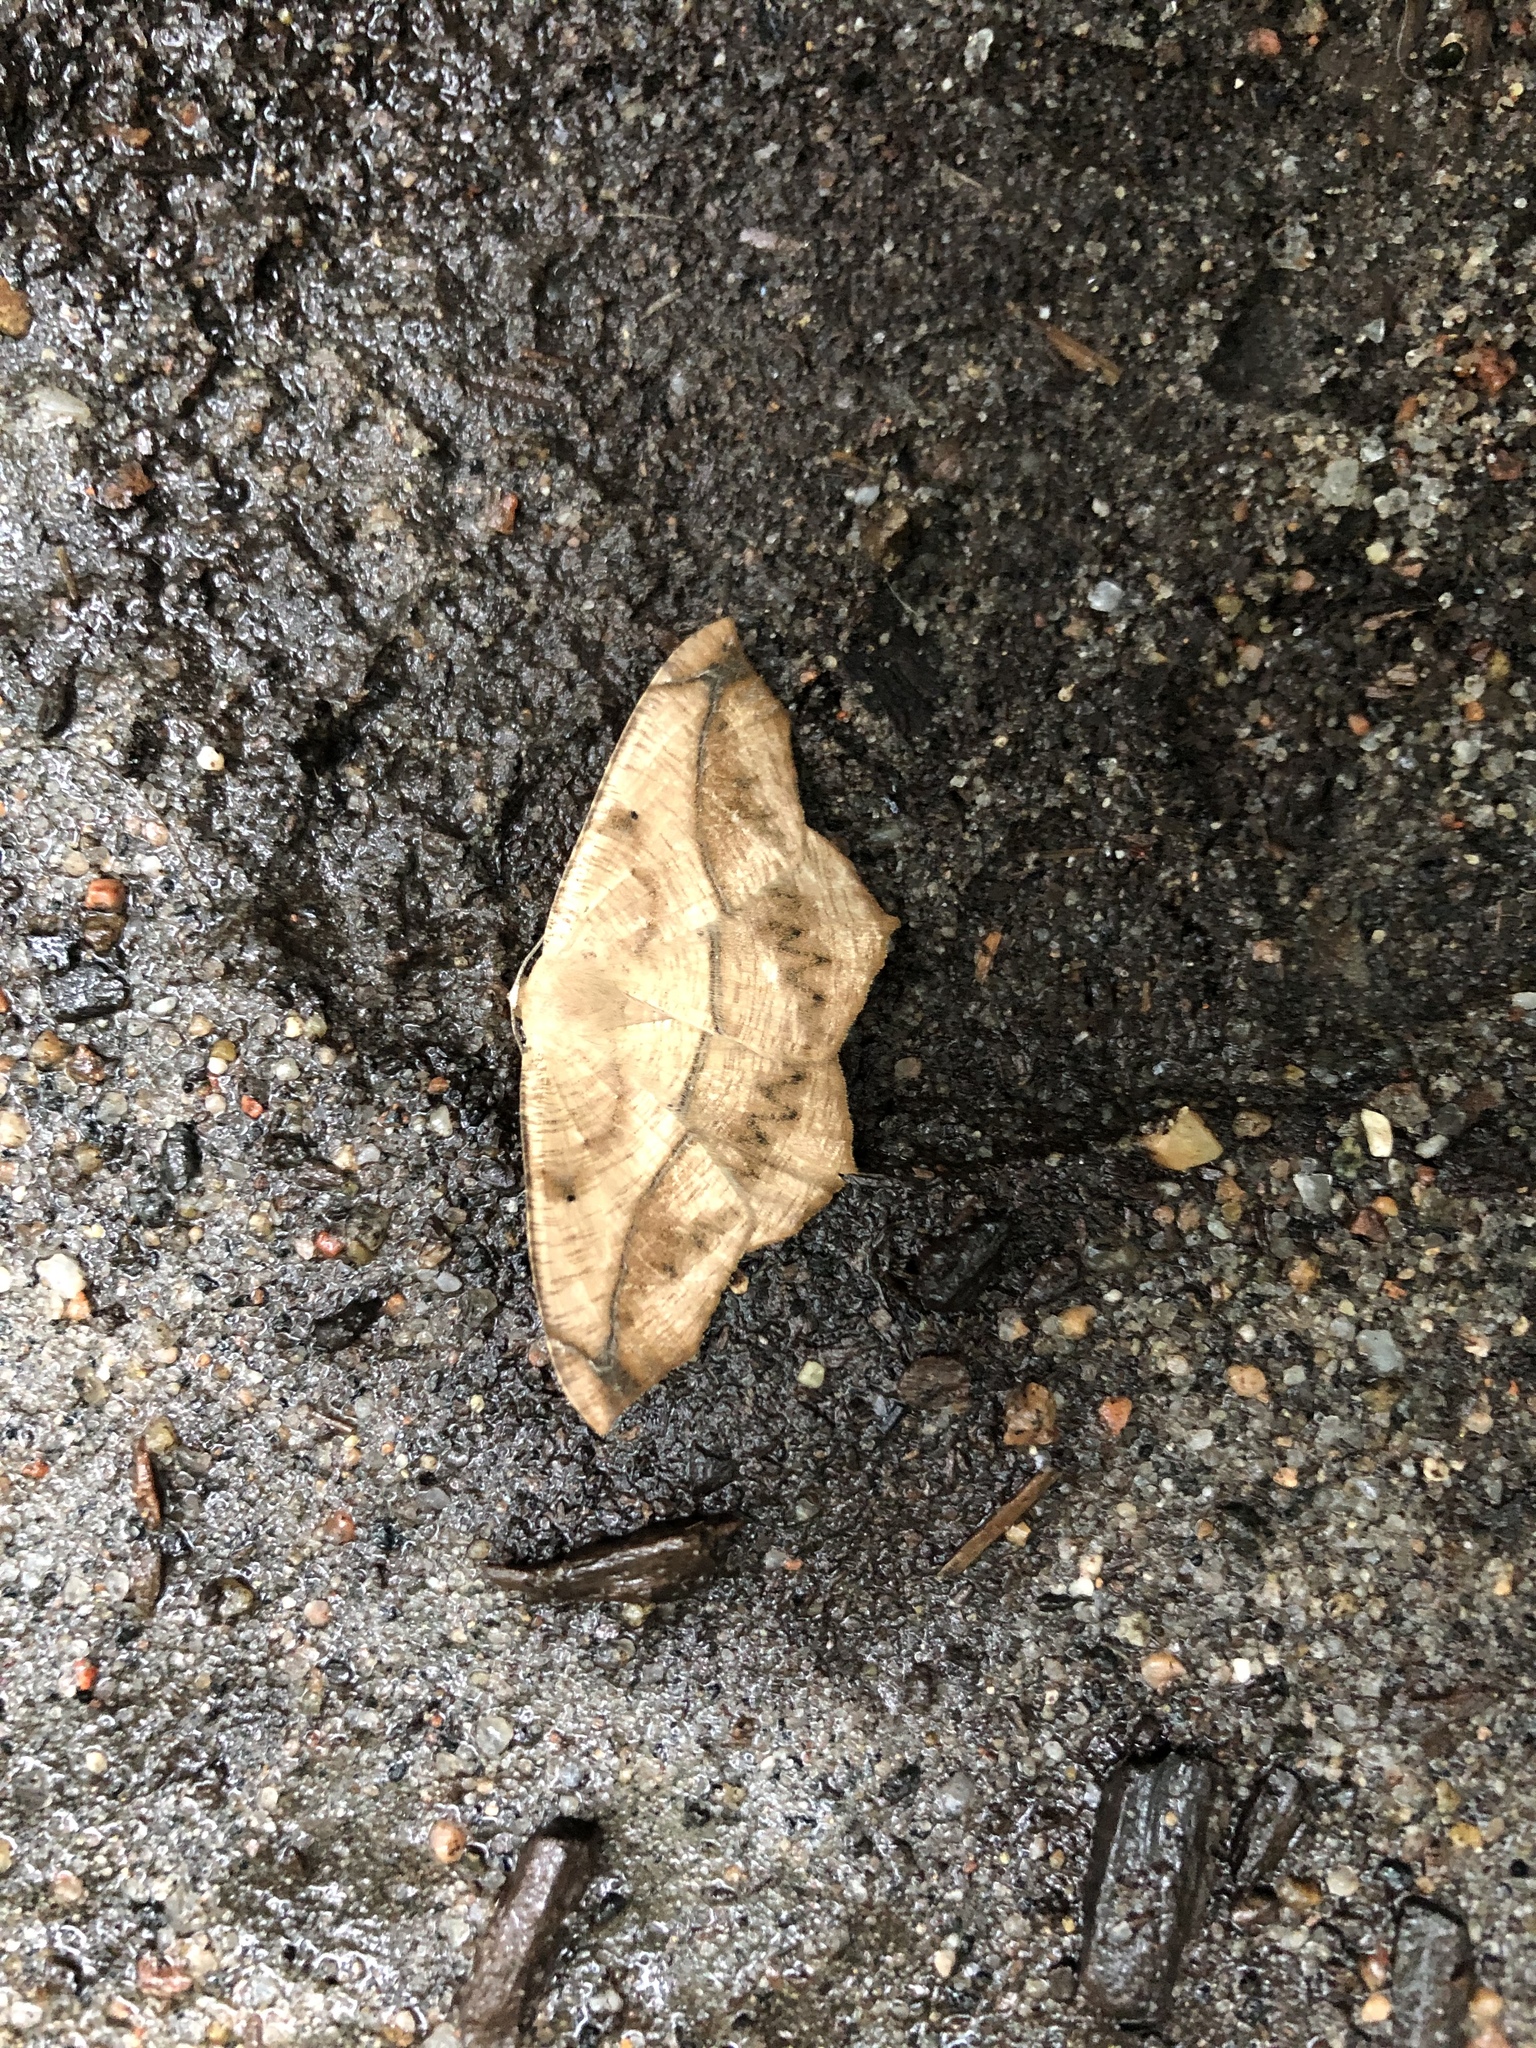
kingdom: Animalia
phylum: Arthropoda
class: Insecta
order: Lepidoptera
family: Geometridae
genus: Prochoerodes
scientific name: Prochoerodes lineola
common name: Large maple spanworm
